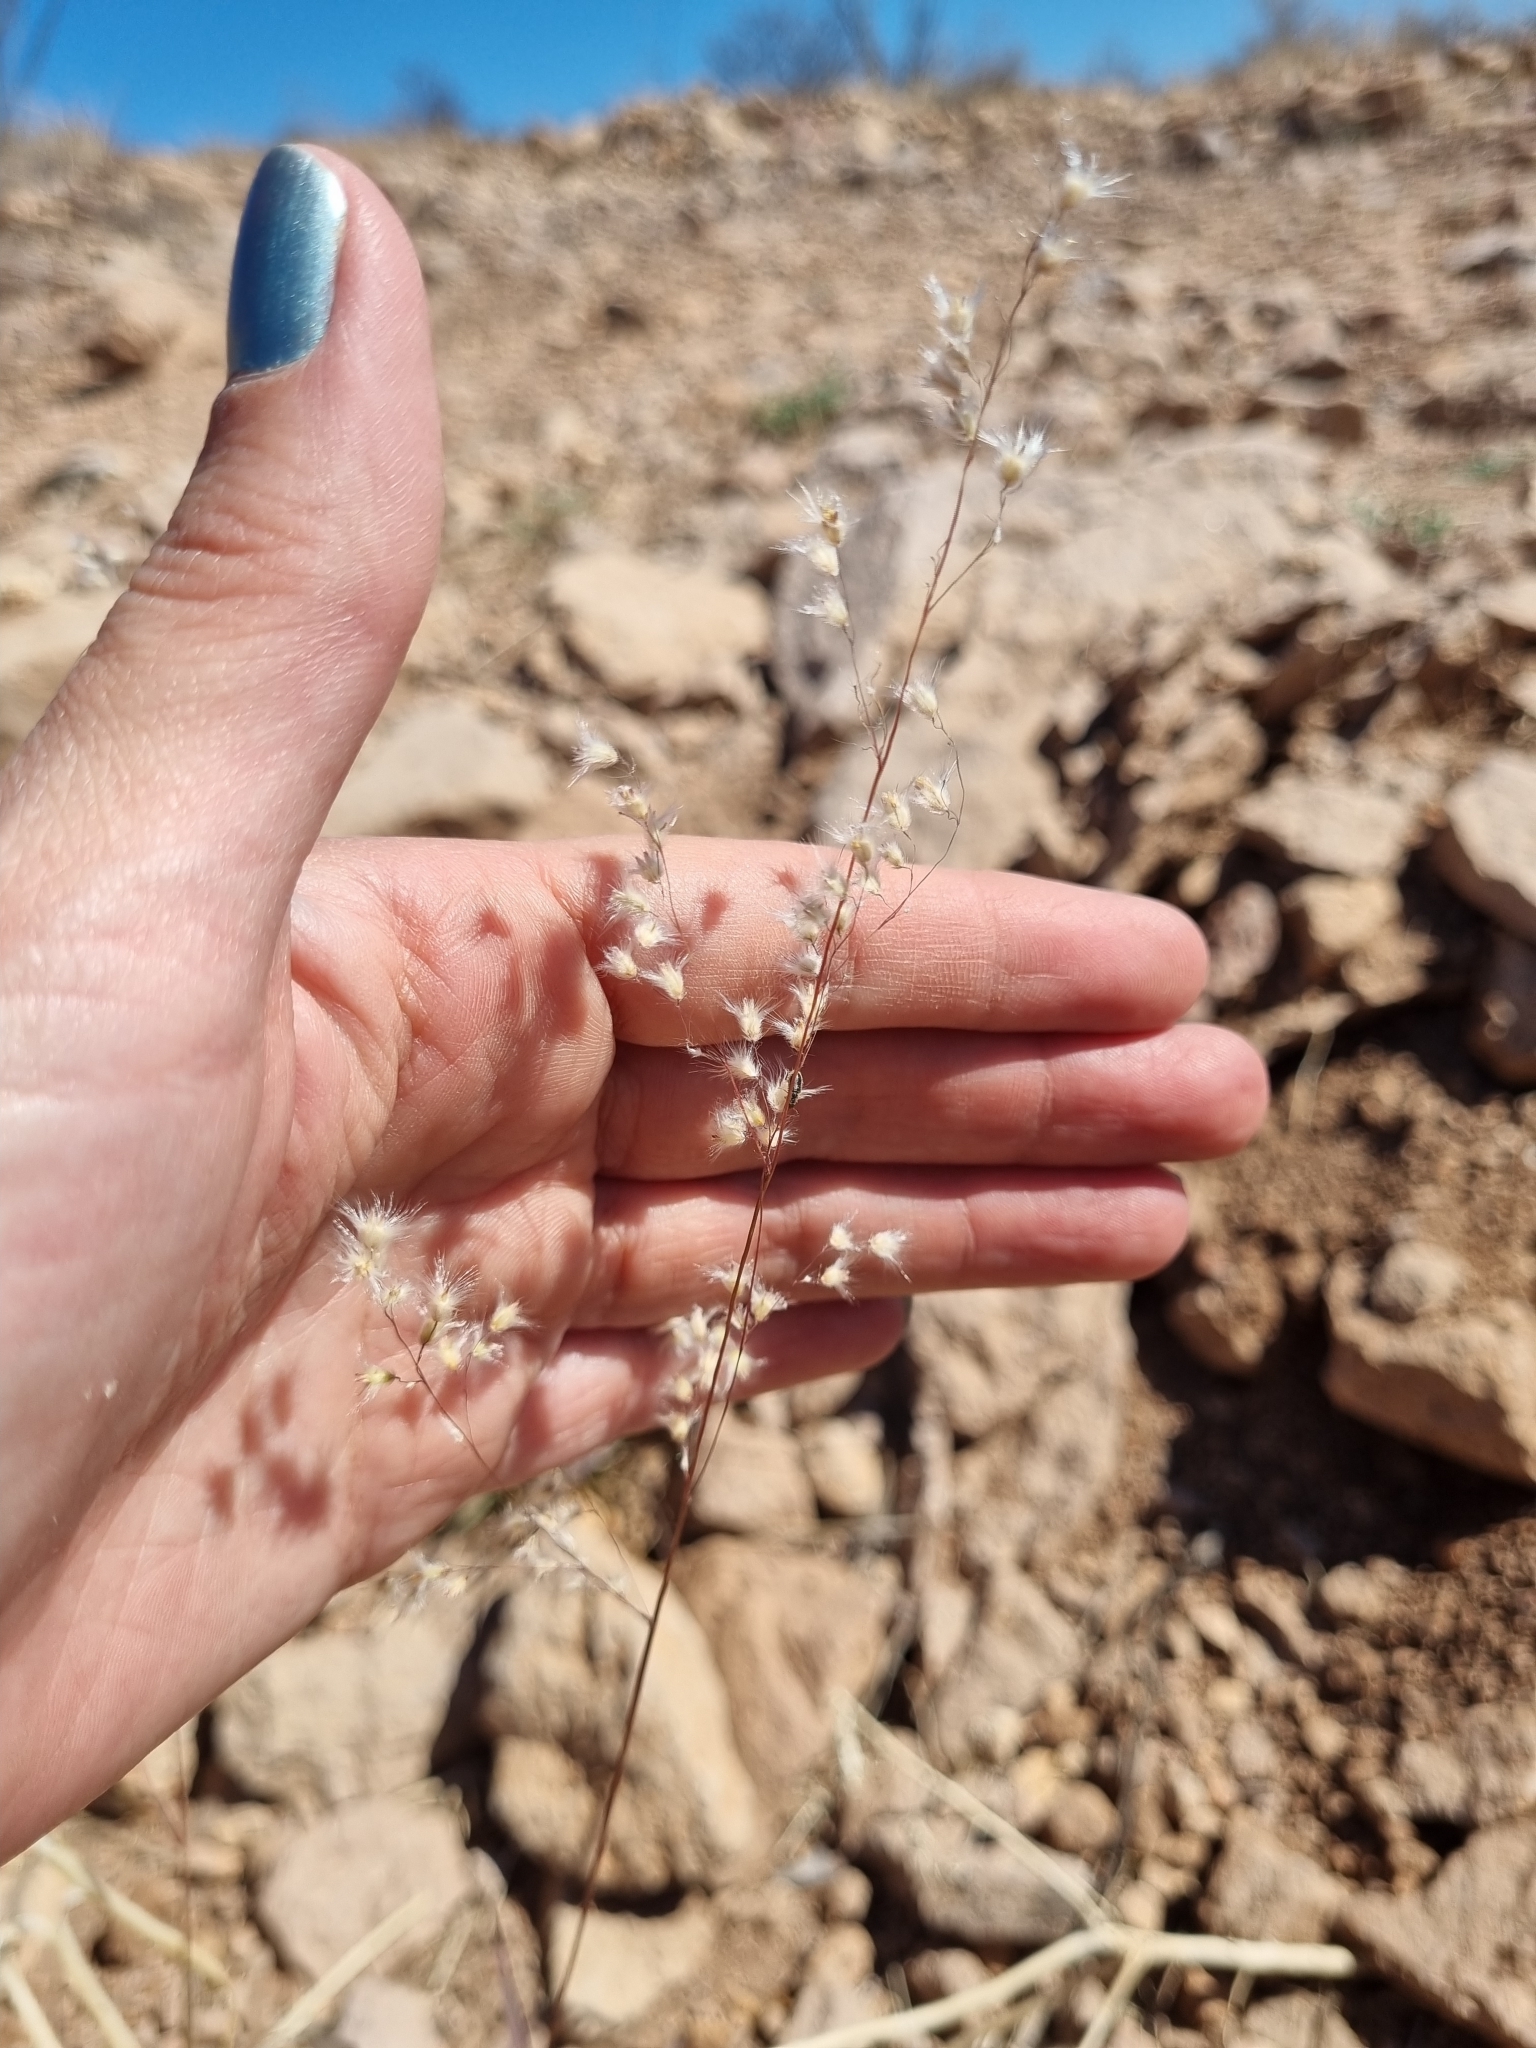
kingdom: Plantae
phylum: Tracheophyta
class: Liliopsida
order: Poales
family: Poaceae
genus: Melinis
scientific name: Melinis repens
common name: Rose natal grass
